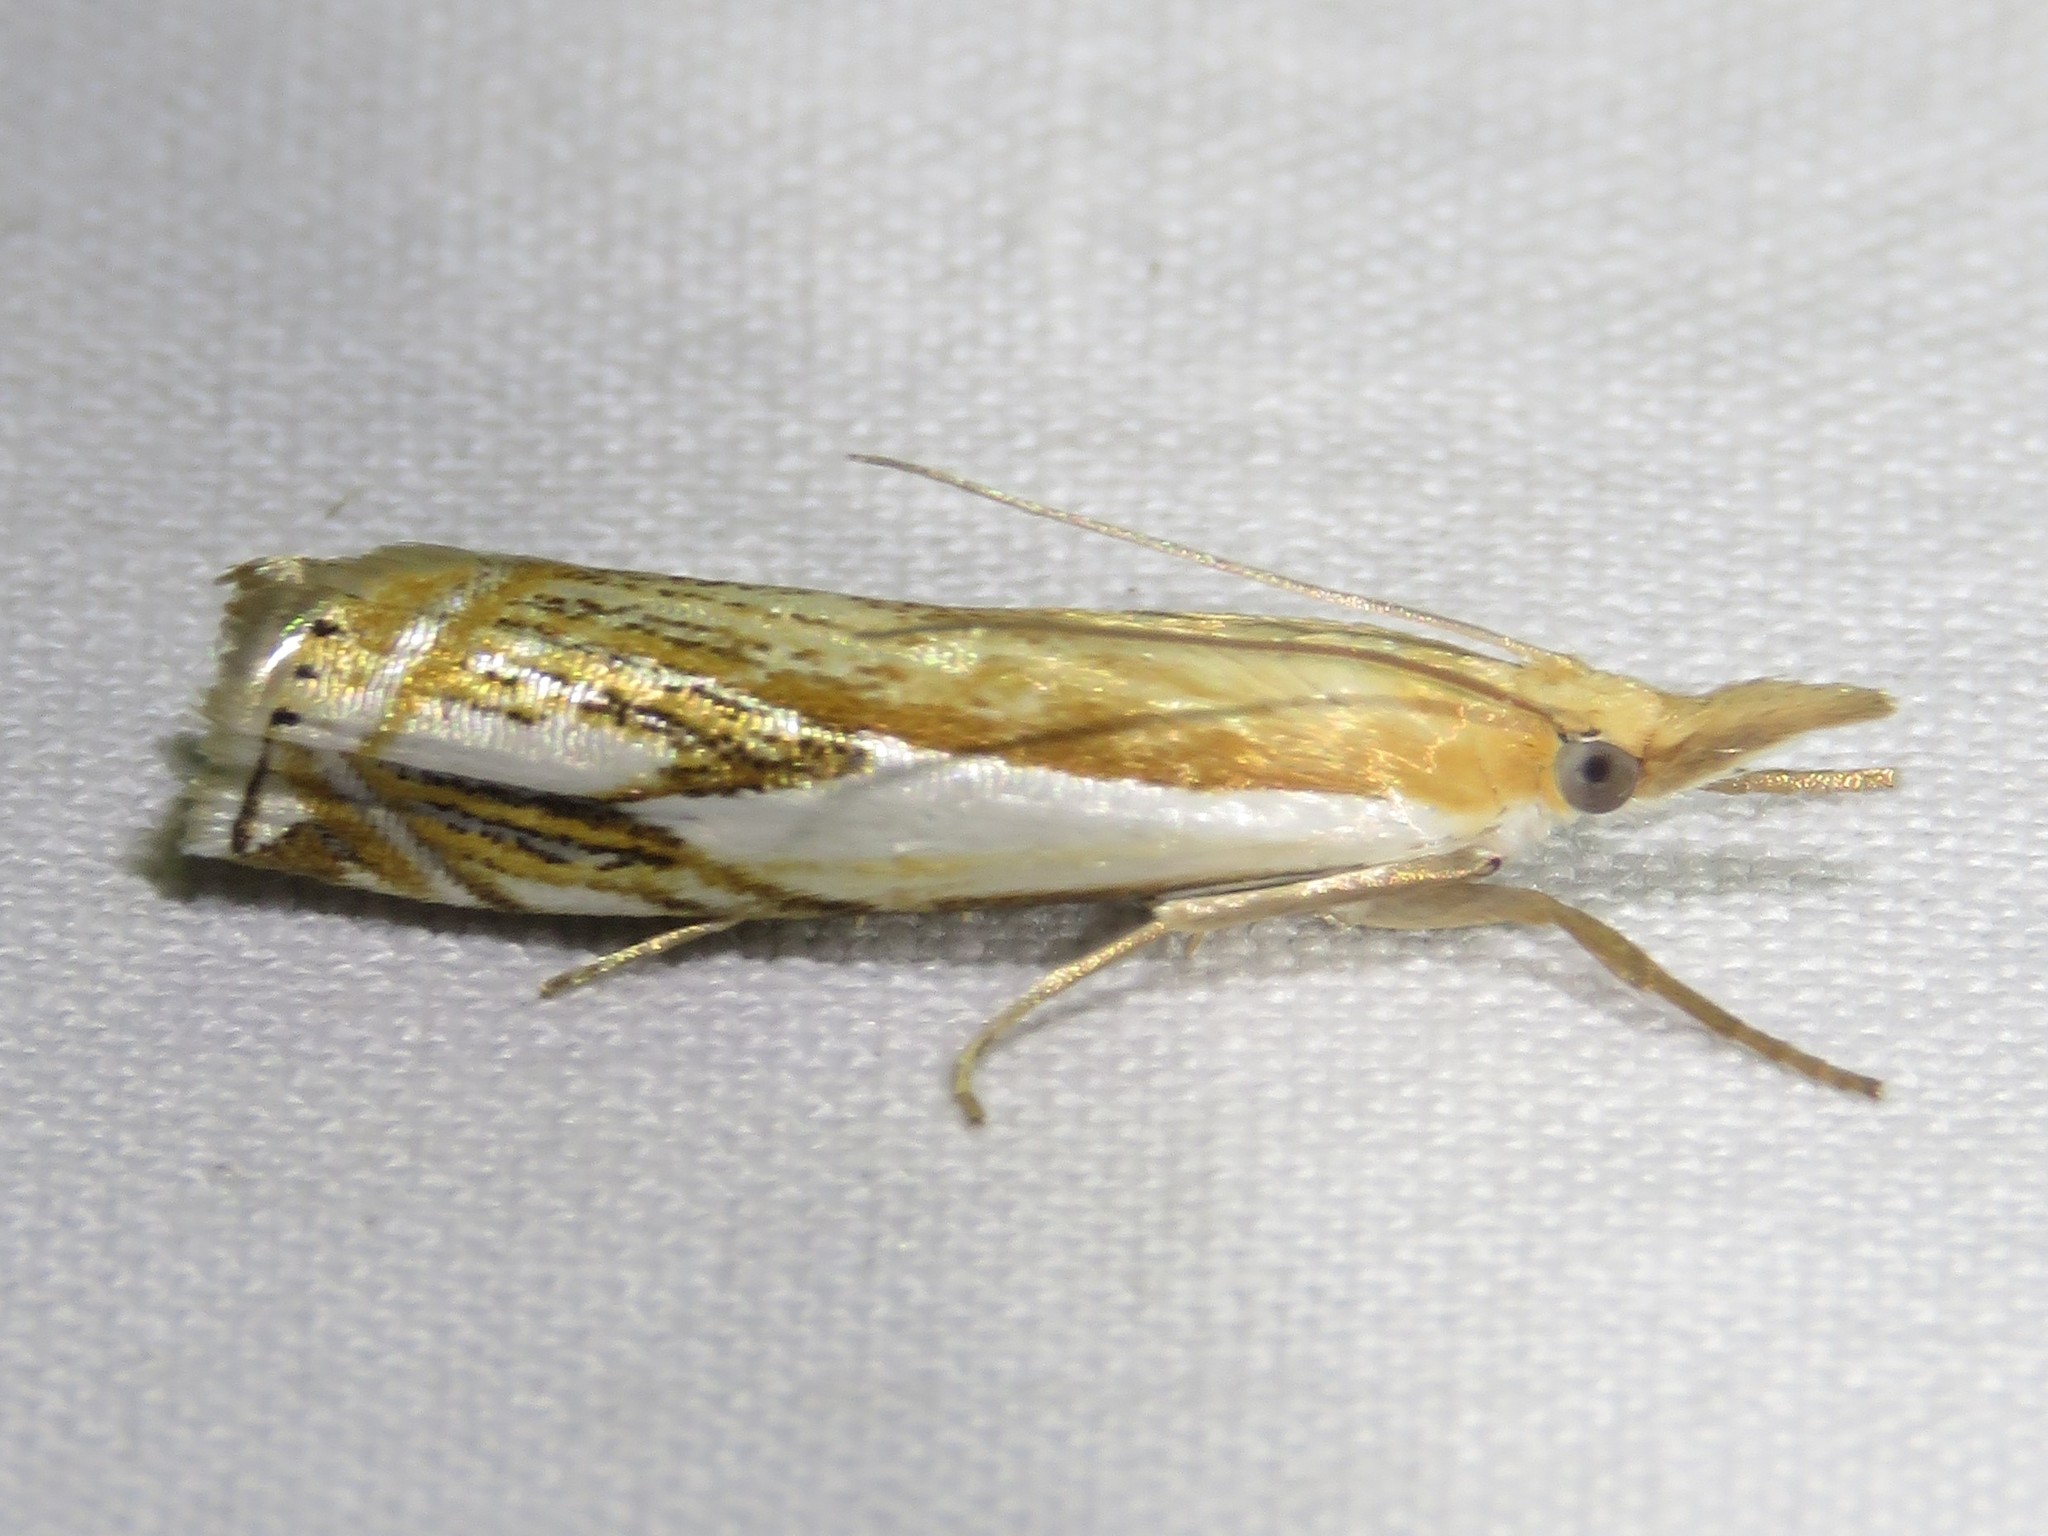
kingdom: Animalia
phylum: Arthropoda
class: Insecta
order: Lepidoptera
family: Crambidae
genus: Crambus
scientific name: Crambus agitatellus
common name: Double-banded grass-veneer
